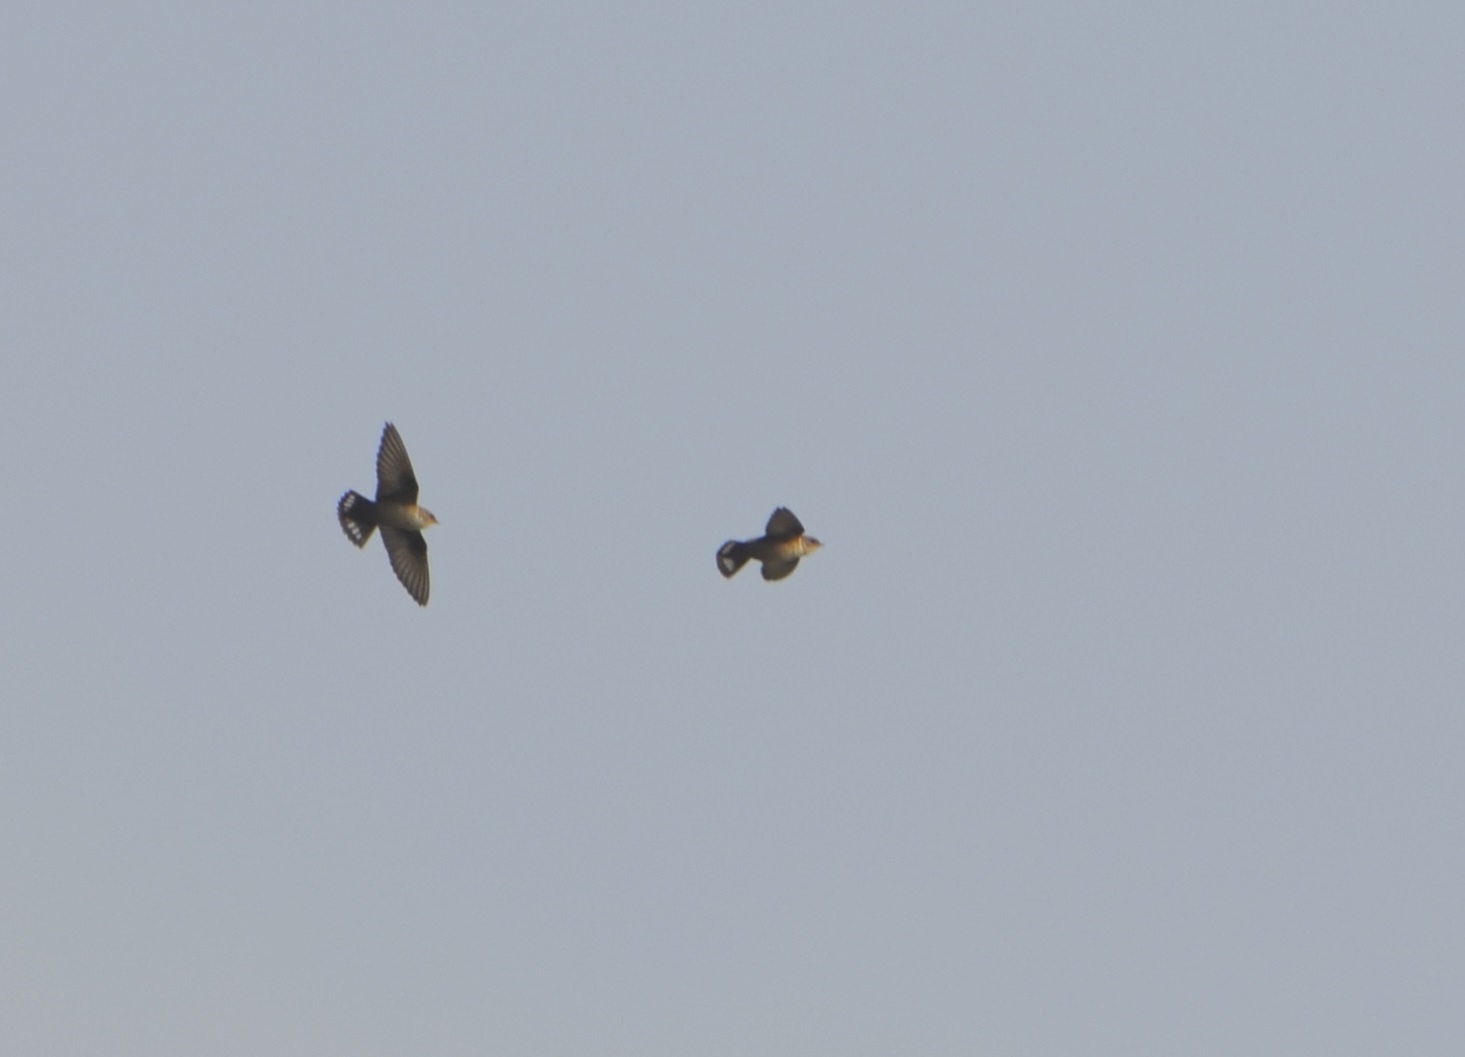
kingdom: Animalia
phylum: Chordata
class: Aves
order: Passeriformes
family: Hirundinidae
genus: Ptyonoprogne
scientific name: Ptyonoprogne rupestris
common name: Eurasian crag martin
